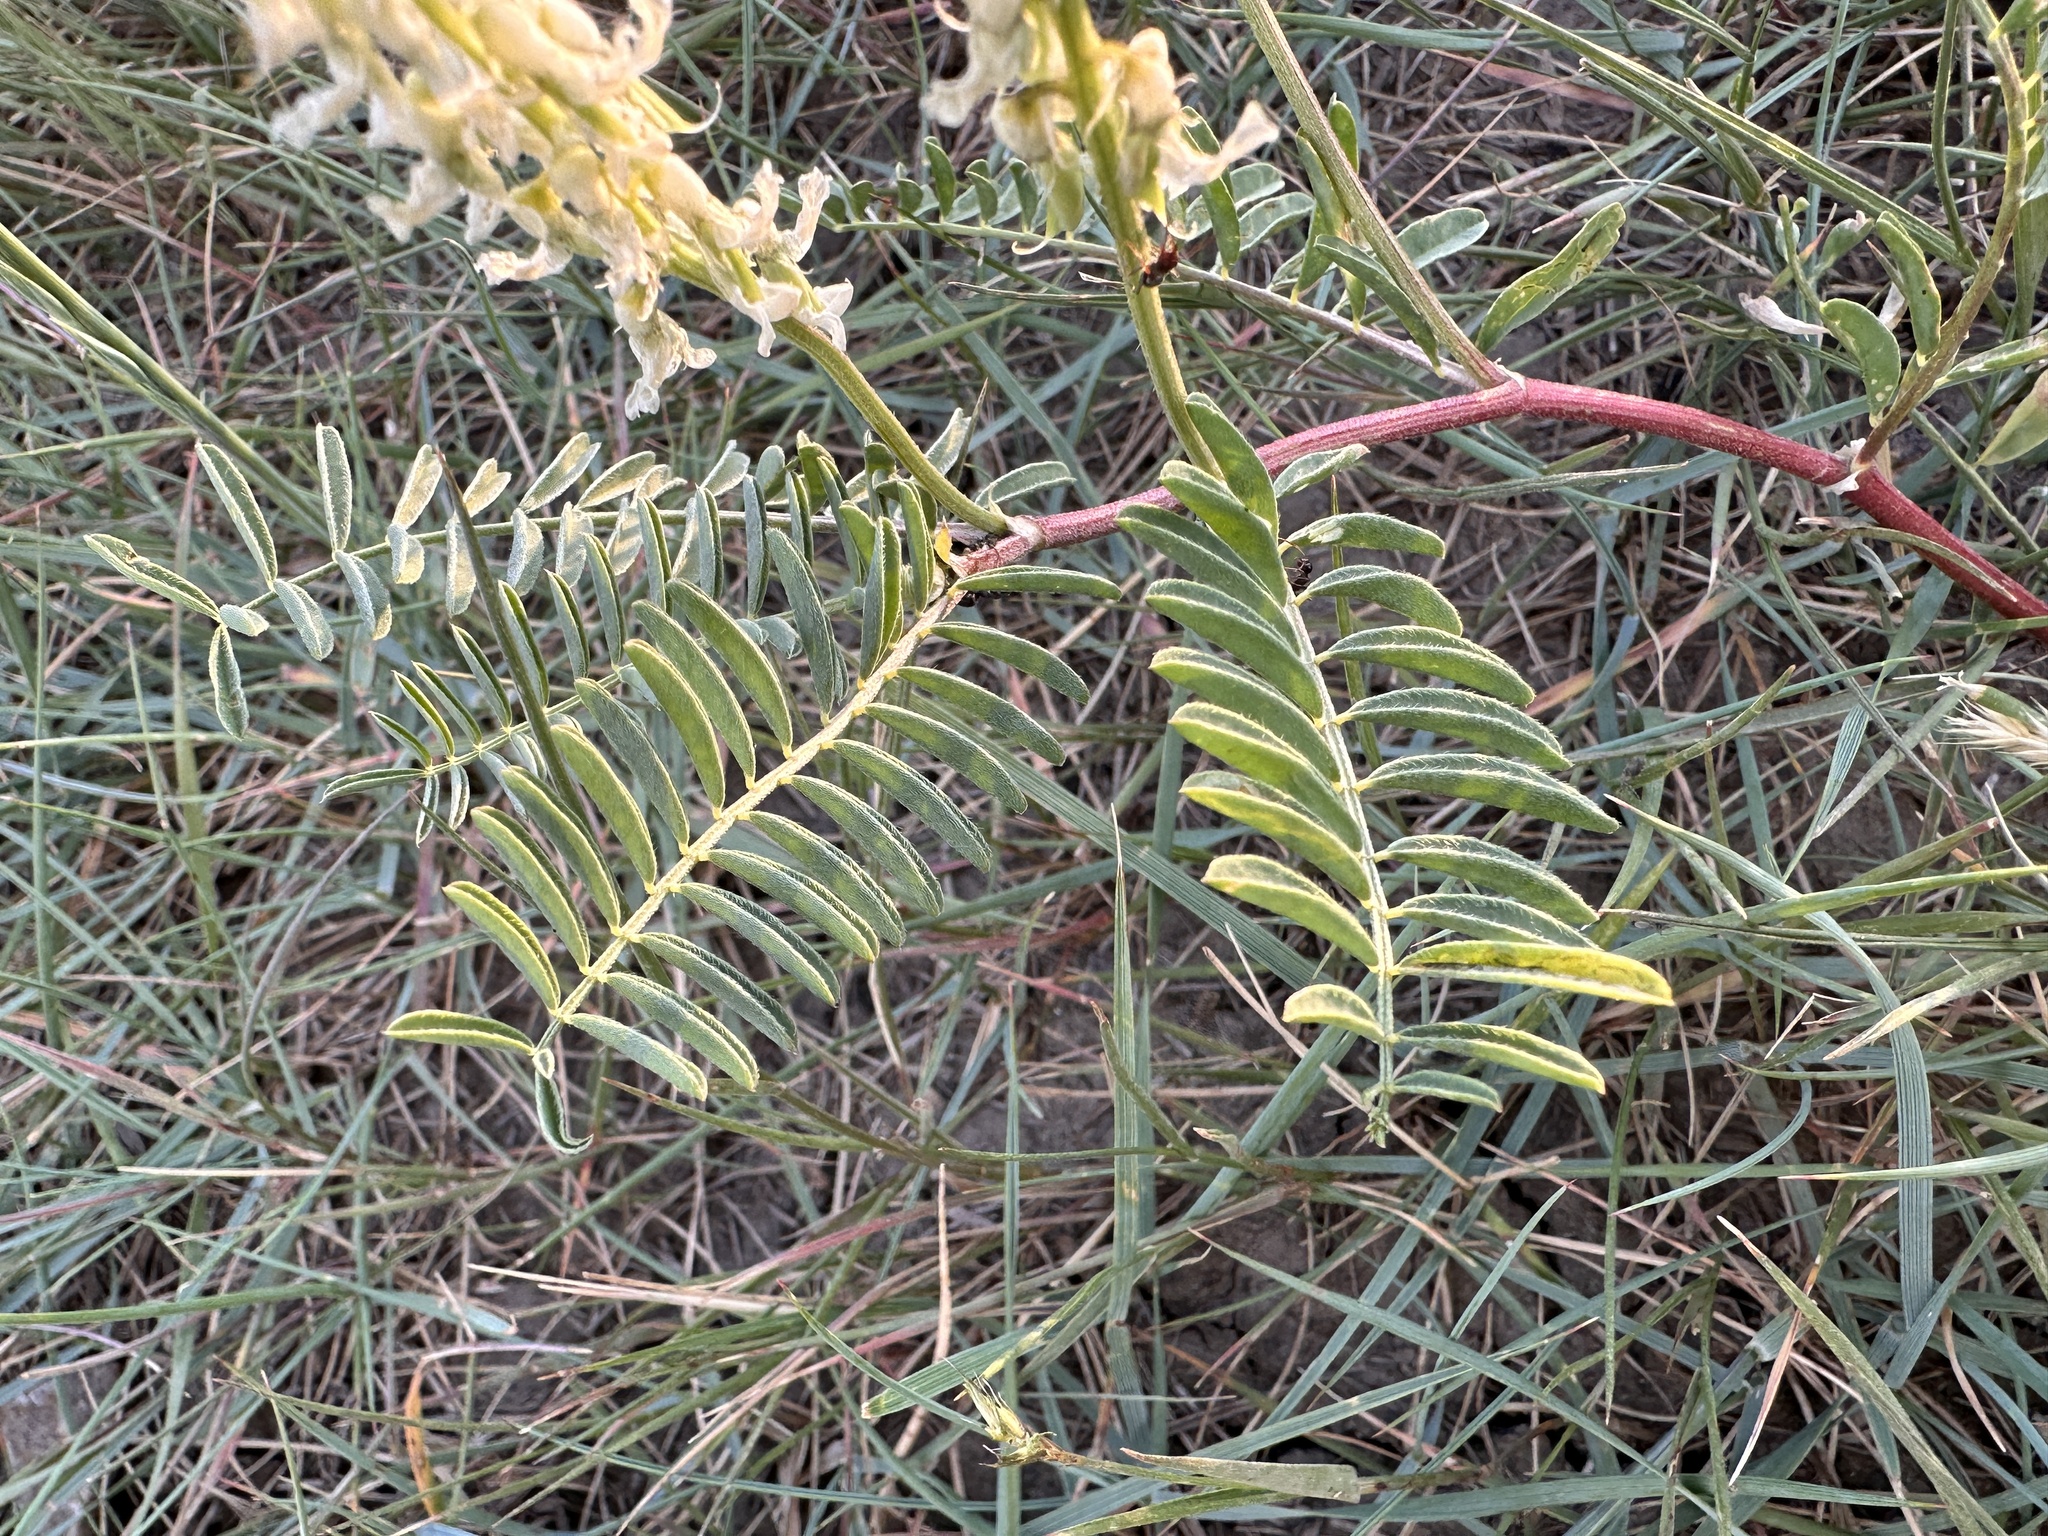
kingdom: Plantae
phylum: Tracheophyta
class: Magnoliopsida
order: Fabales
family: Fabaceae
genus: Astragalus
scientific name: Astragalus bisulcatus
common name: Two-groove milk-vetch
